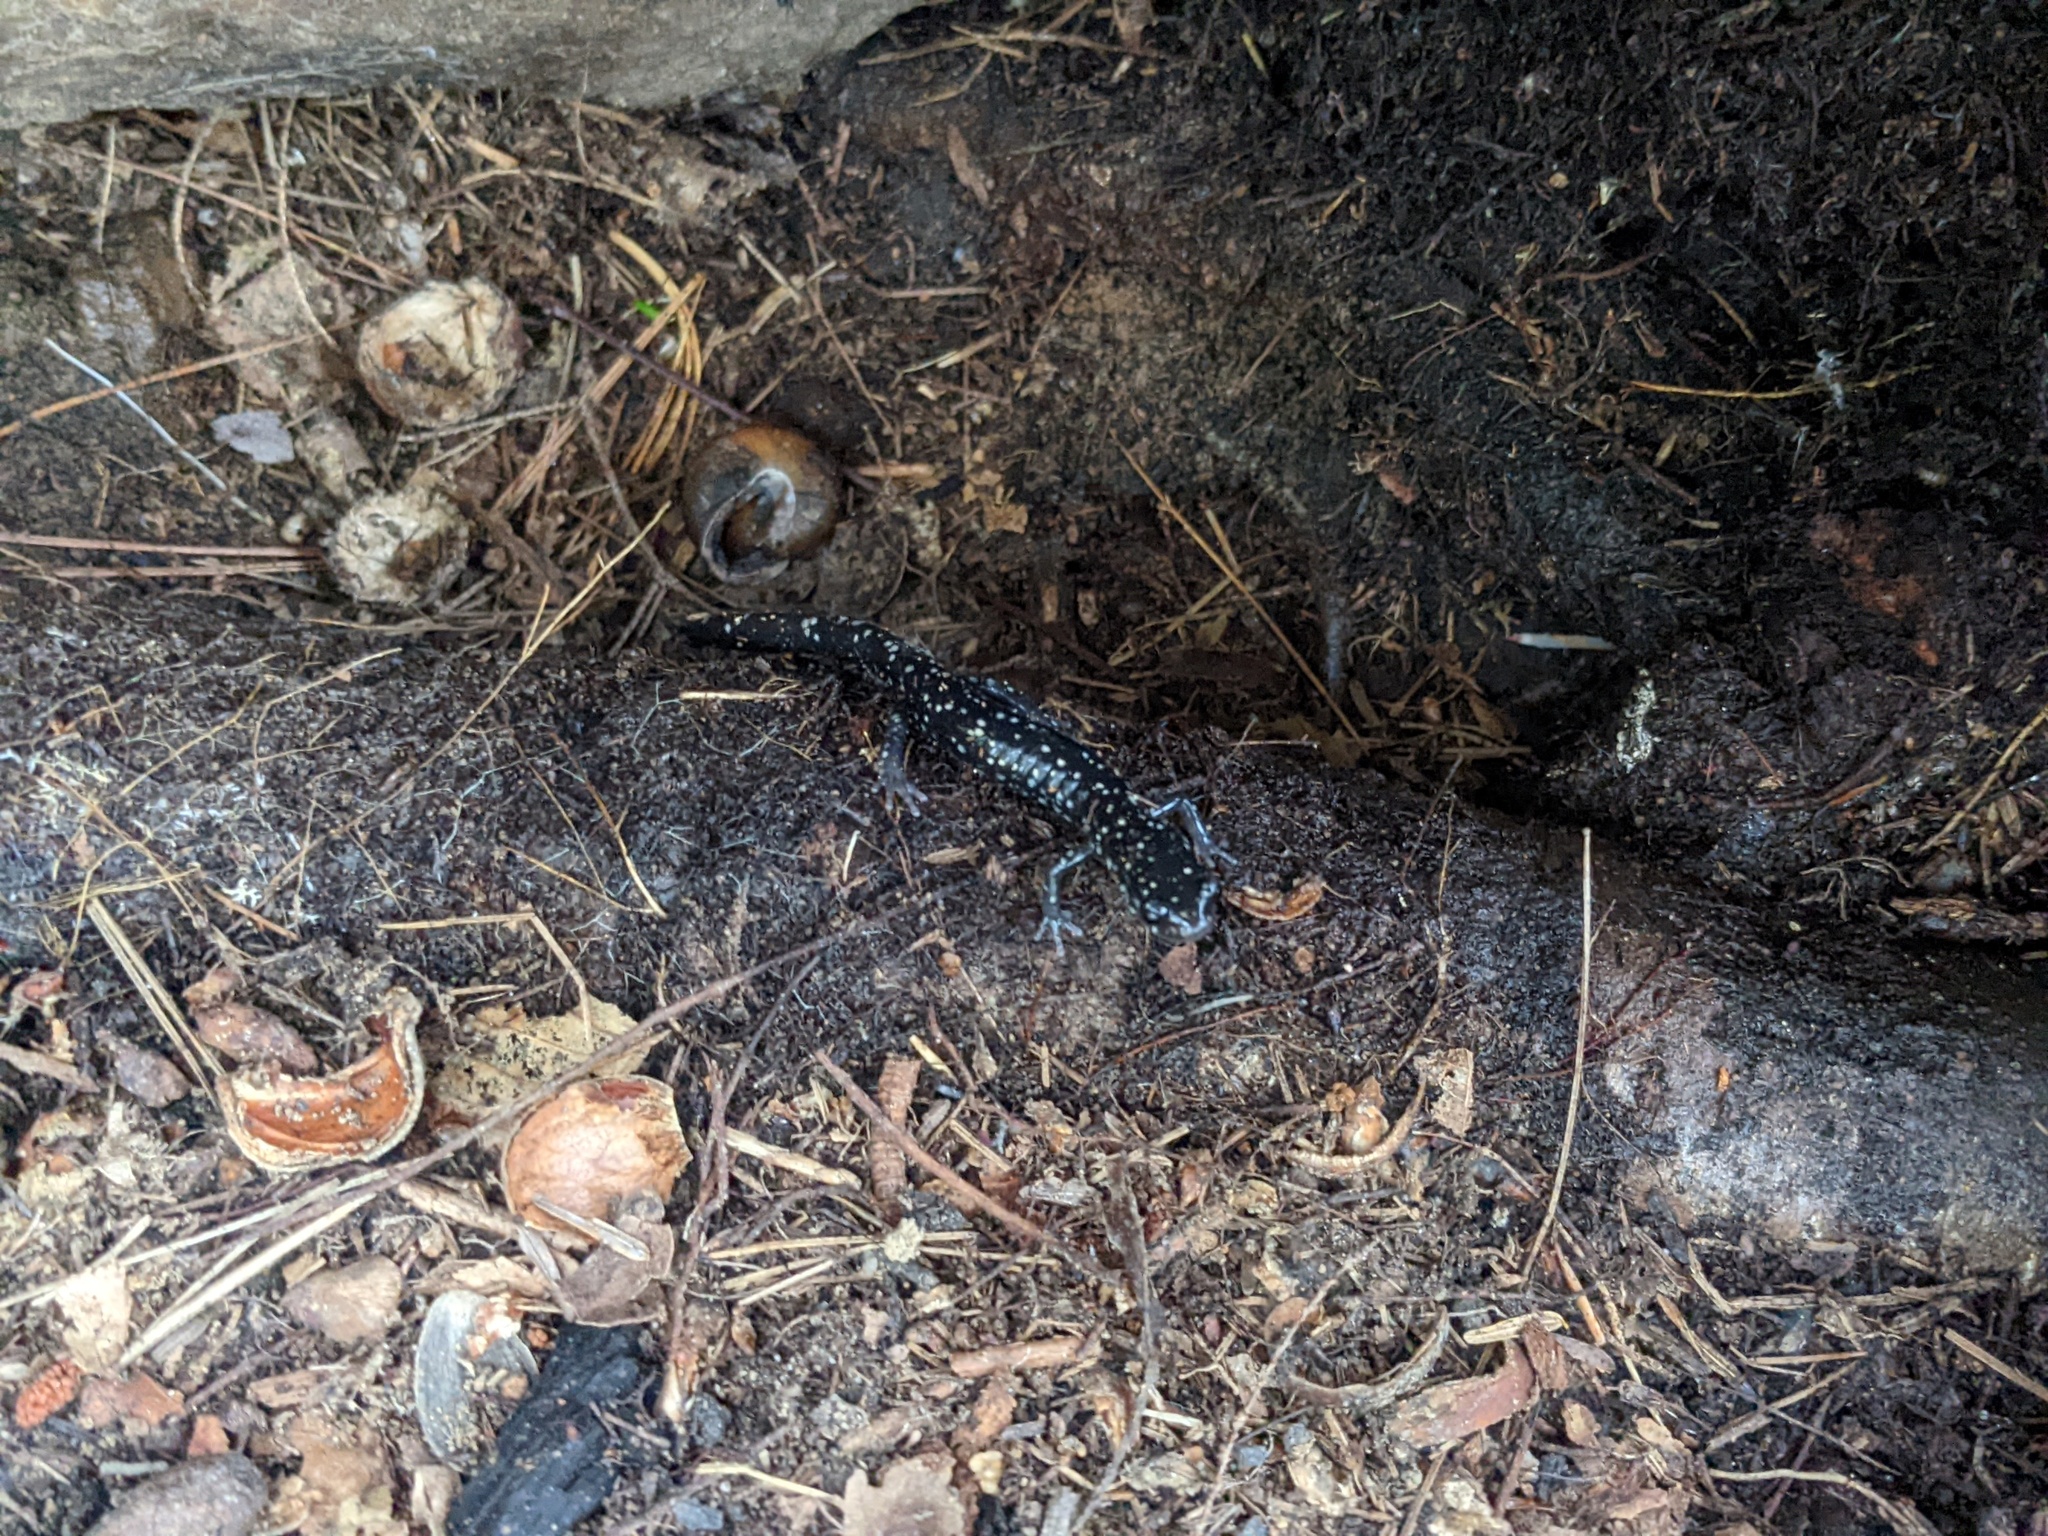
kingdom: Animalia
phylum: Chordata
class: Amphibia
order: Caudata
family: Plethodontidae
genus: Plethodon
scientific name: Plethodon glutinosus
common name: Northern slimy salamander
